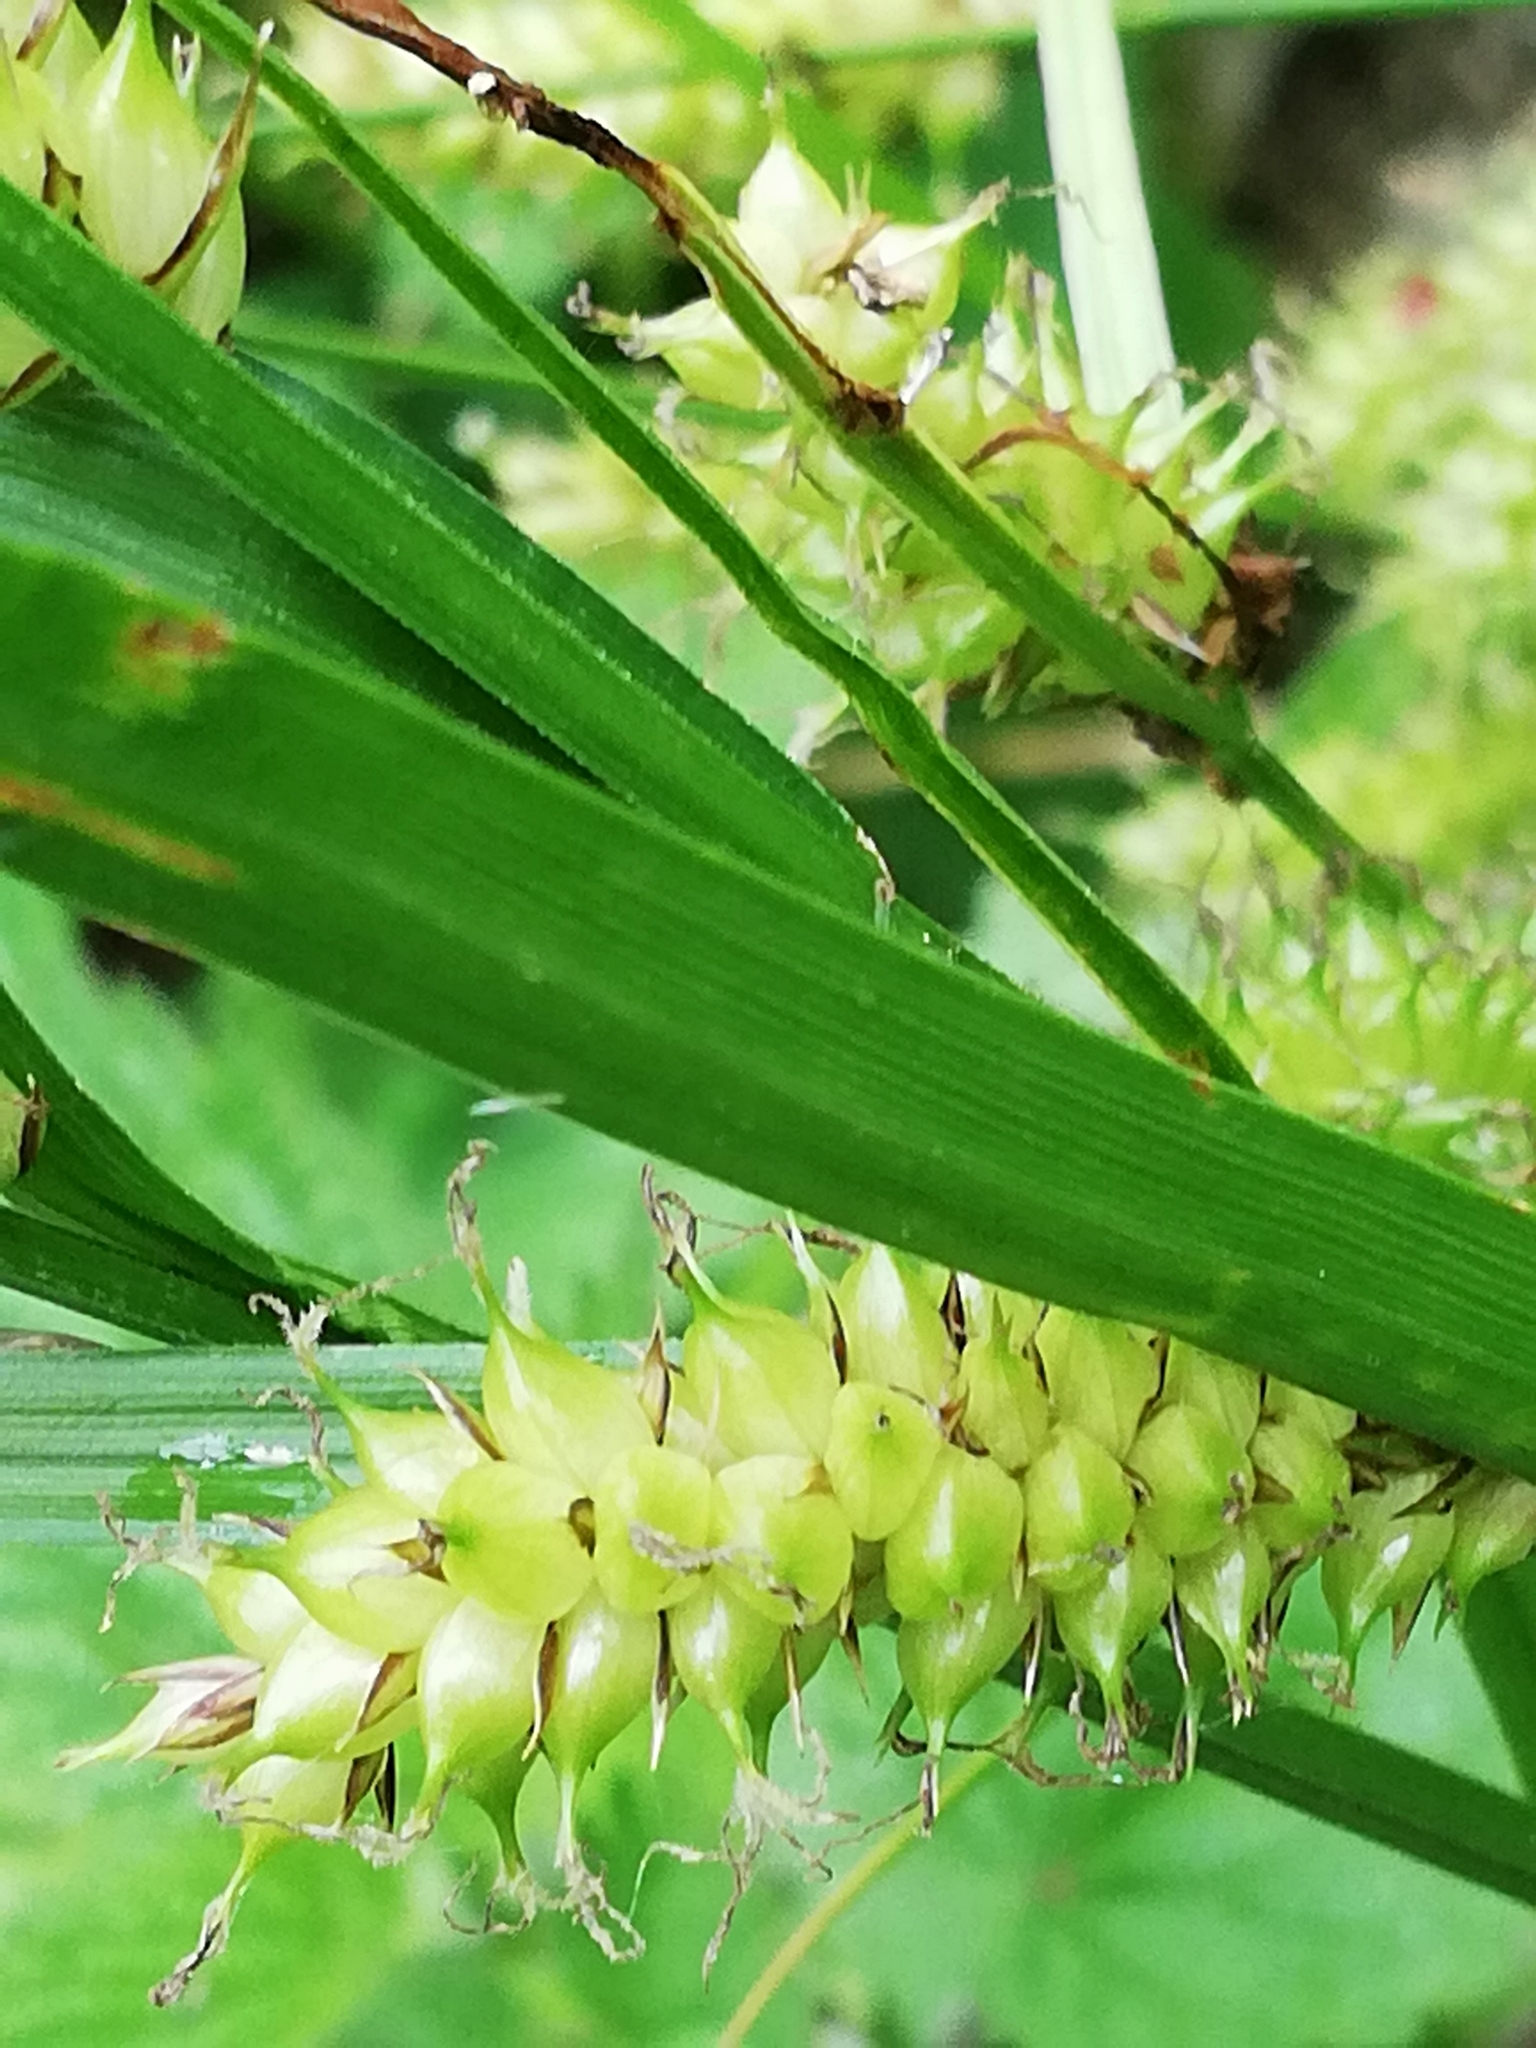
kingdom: Plantae
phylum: Tracheophyta
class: Liliopsida
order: Poales
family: Cyperaceae
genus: Carex
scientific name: Carex vesicaria
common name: Bladder-sedge
